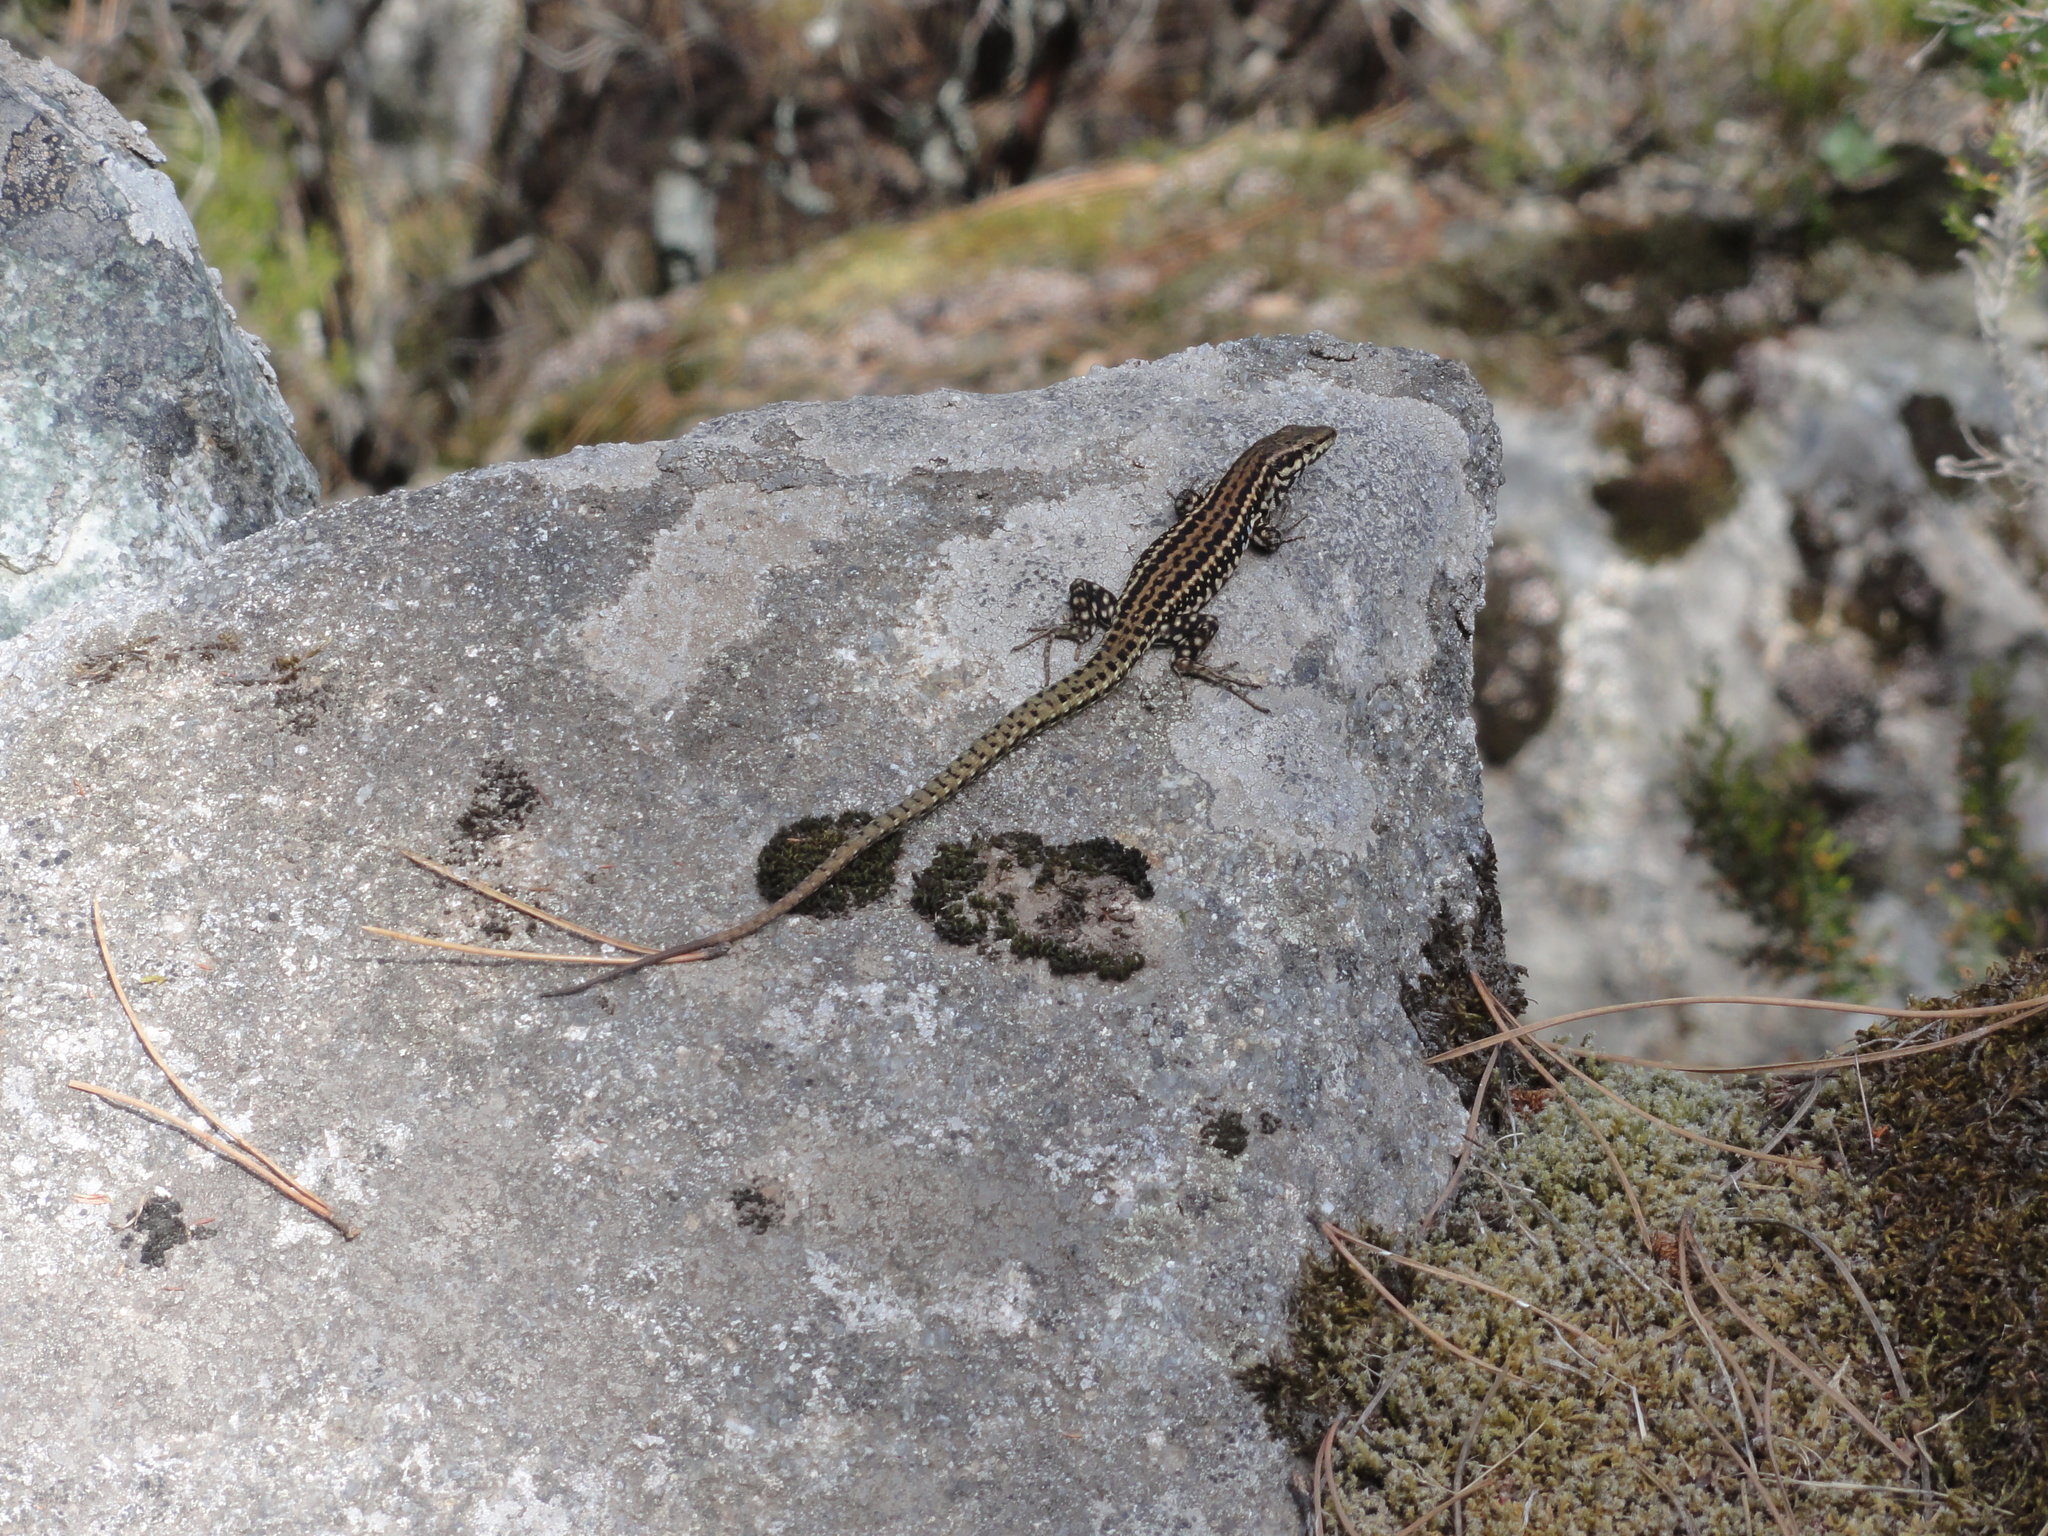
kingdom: Animalia
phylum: Chordata
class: Squamata
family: Lacertidae
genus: Podarcis
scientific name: Podarcis tiliguerta
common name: Tyrrhenian wall lizard
